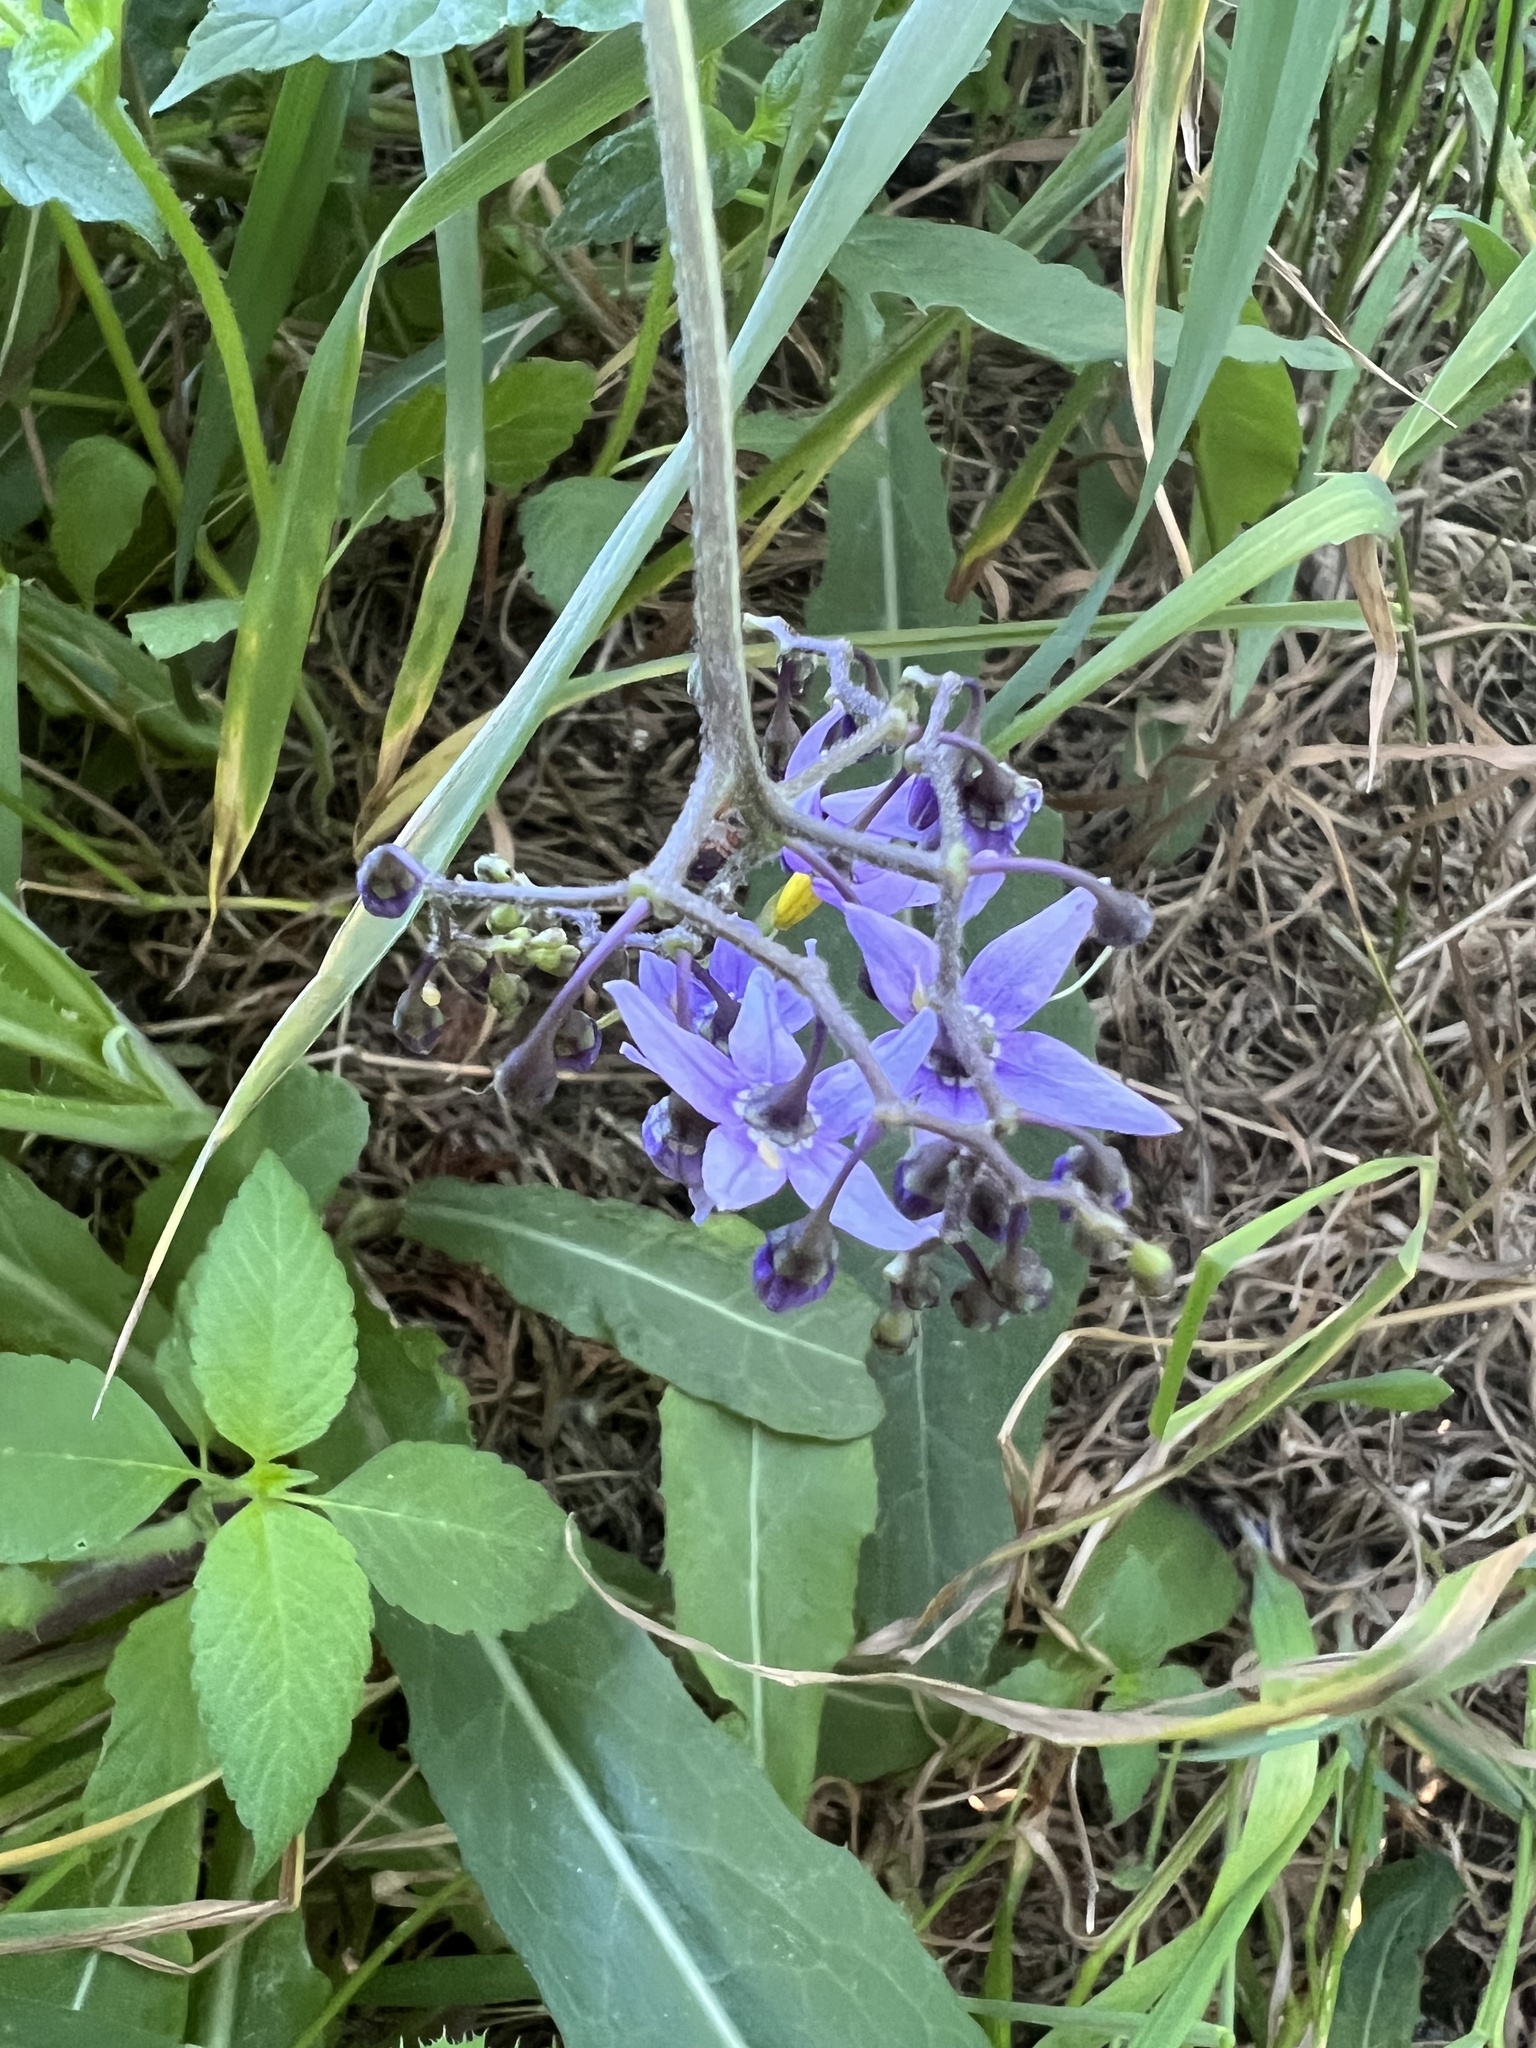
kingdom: Plantae
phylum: Tracheophyta
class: Magnoliopsida
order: Solanales
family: Solanaceae
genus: Solanum
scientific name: Solanum dulcamara
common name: Climbing nightshade
